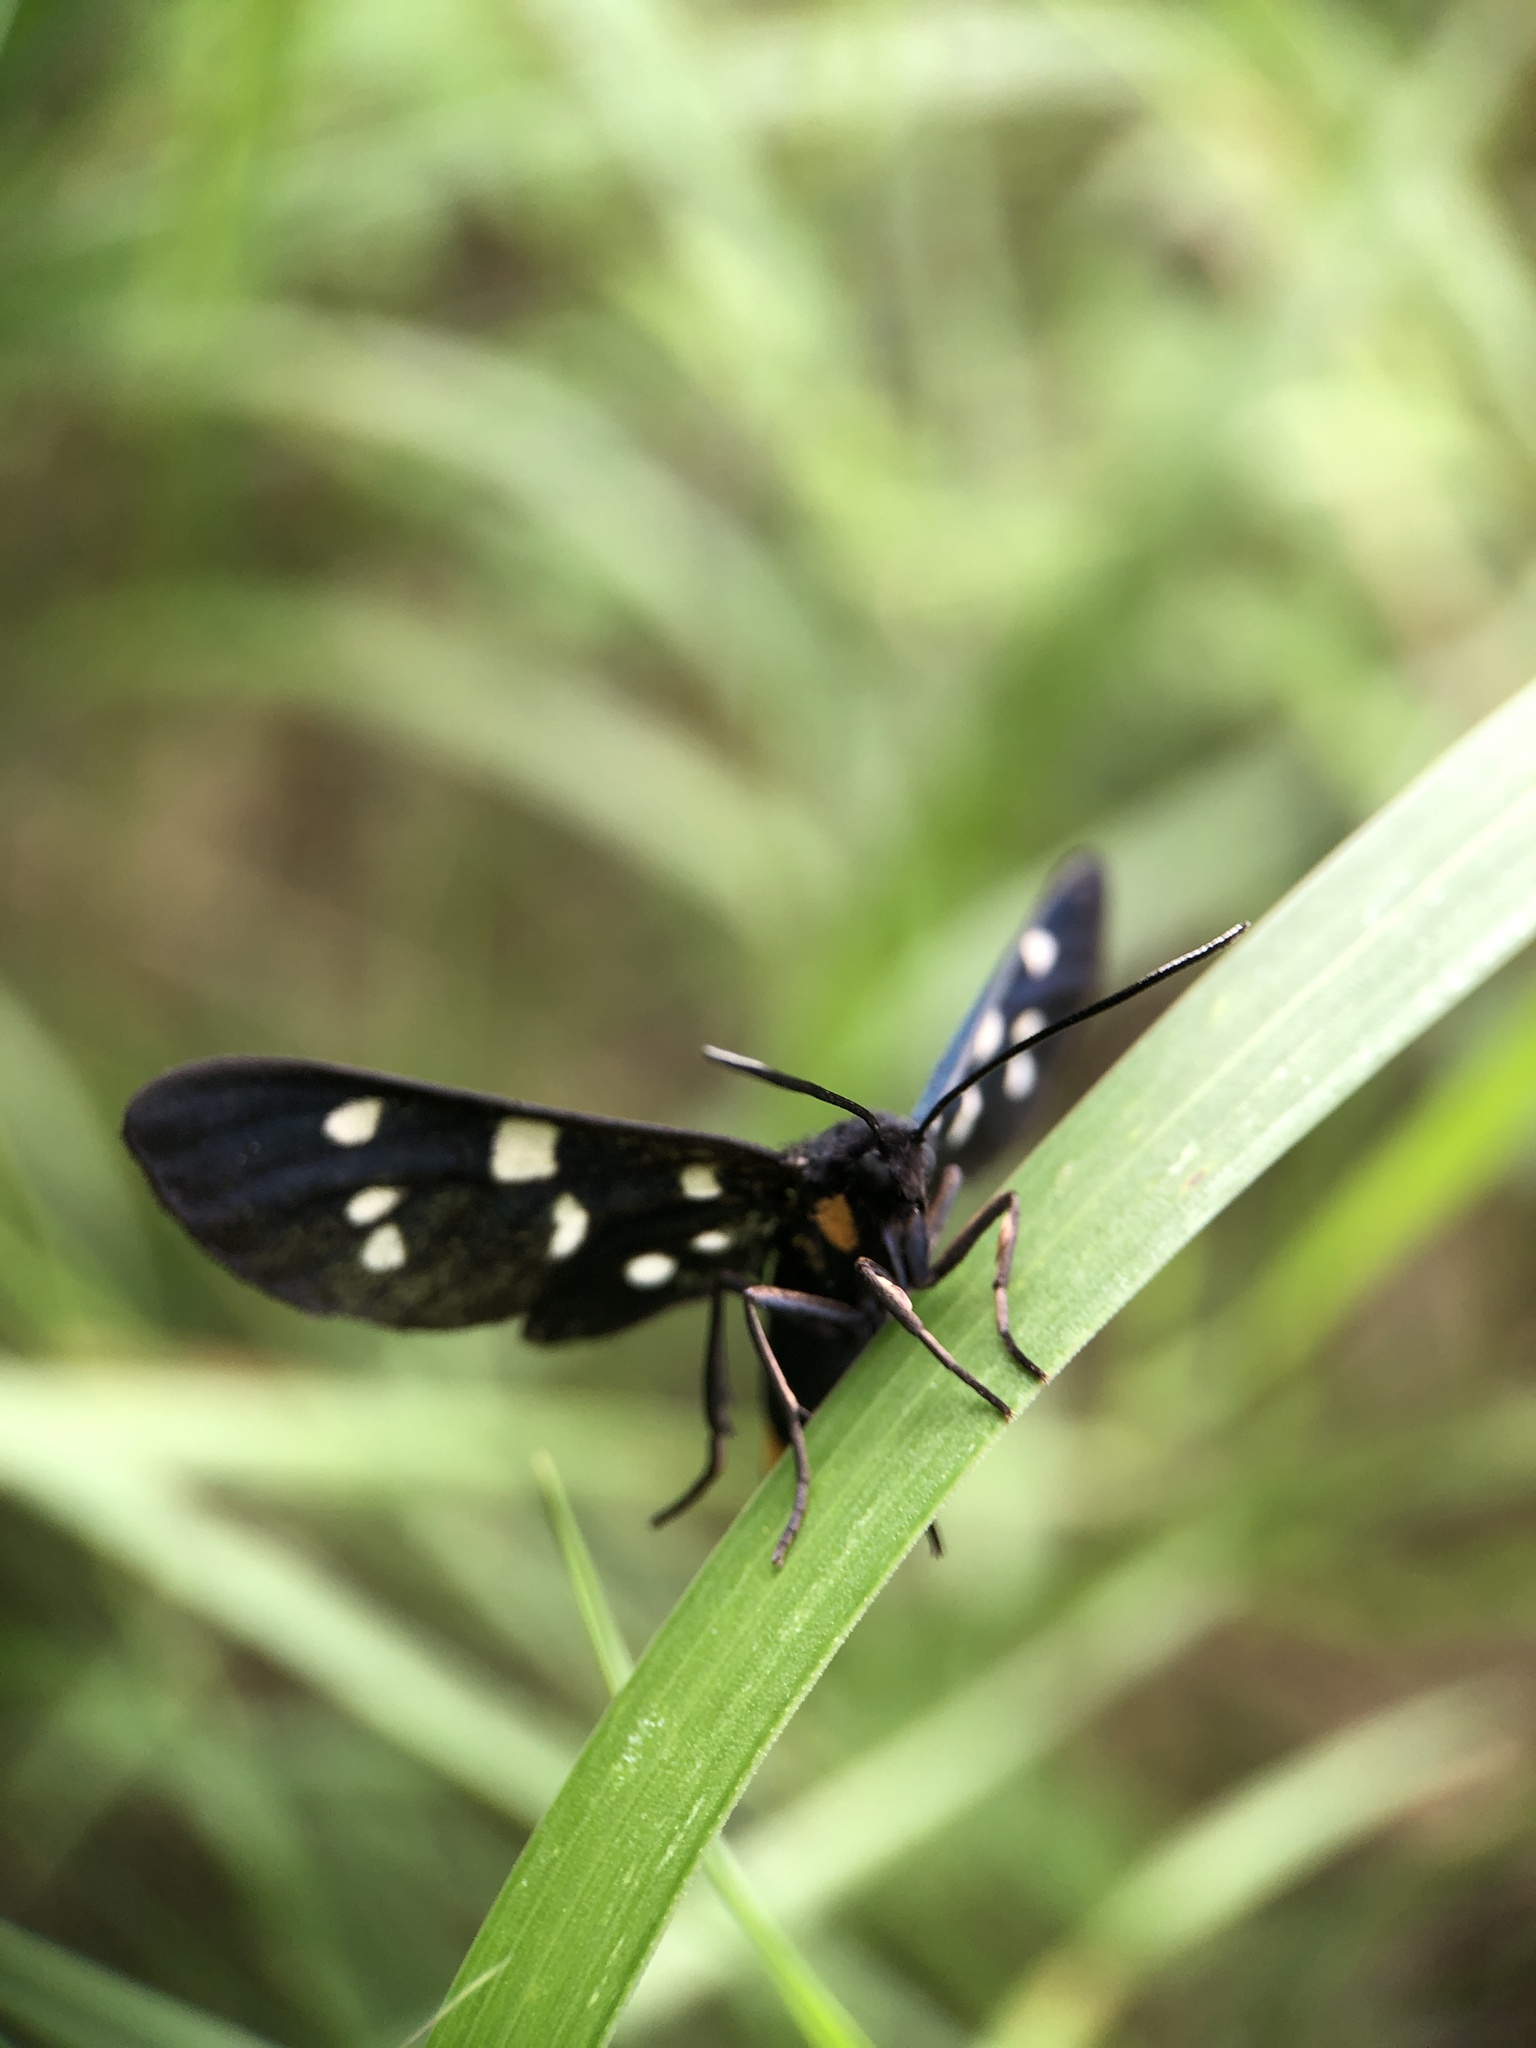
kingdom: Animalia
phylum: Arthropoda
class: Insecta
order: Lepidoptera
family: Erebidae
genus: Amata
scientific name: Amata phegea
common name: Nine-spotted
